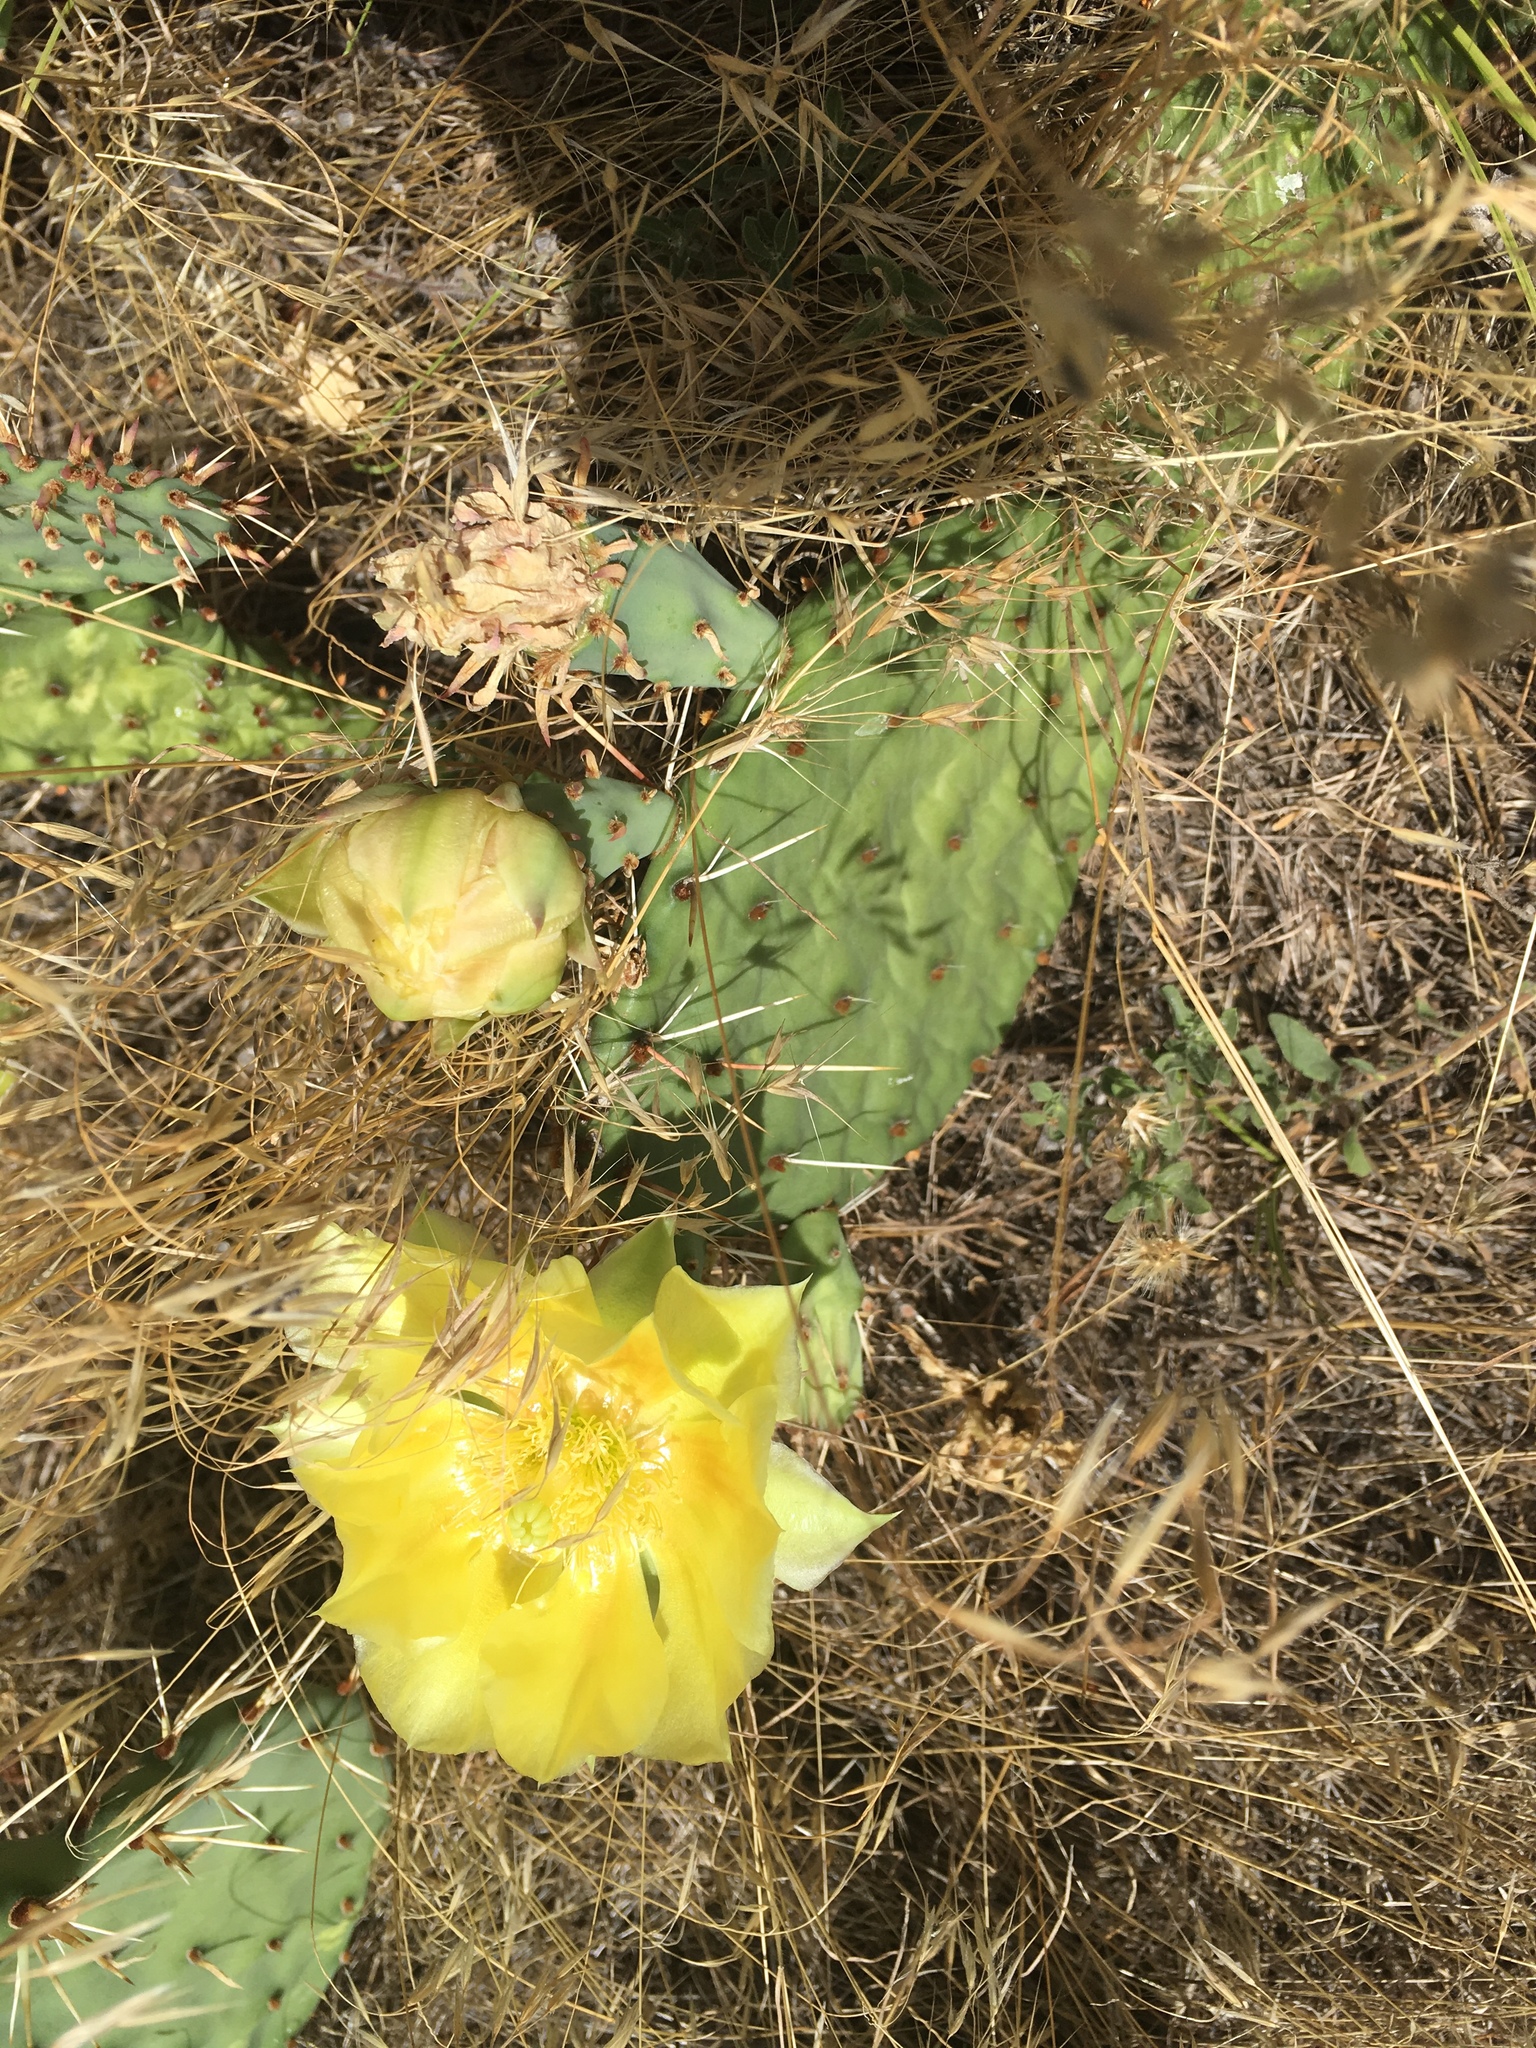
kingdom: Plantae
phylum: Tracheophyta
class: Magnoliopsida
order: Caryophyllales
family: Cactaceae
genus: Opuntia
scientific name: Opuntia macrorhiza
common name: Grassland pricklypear
